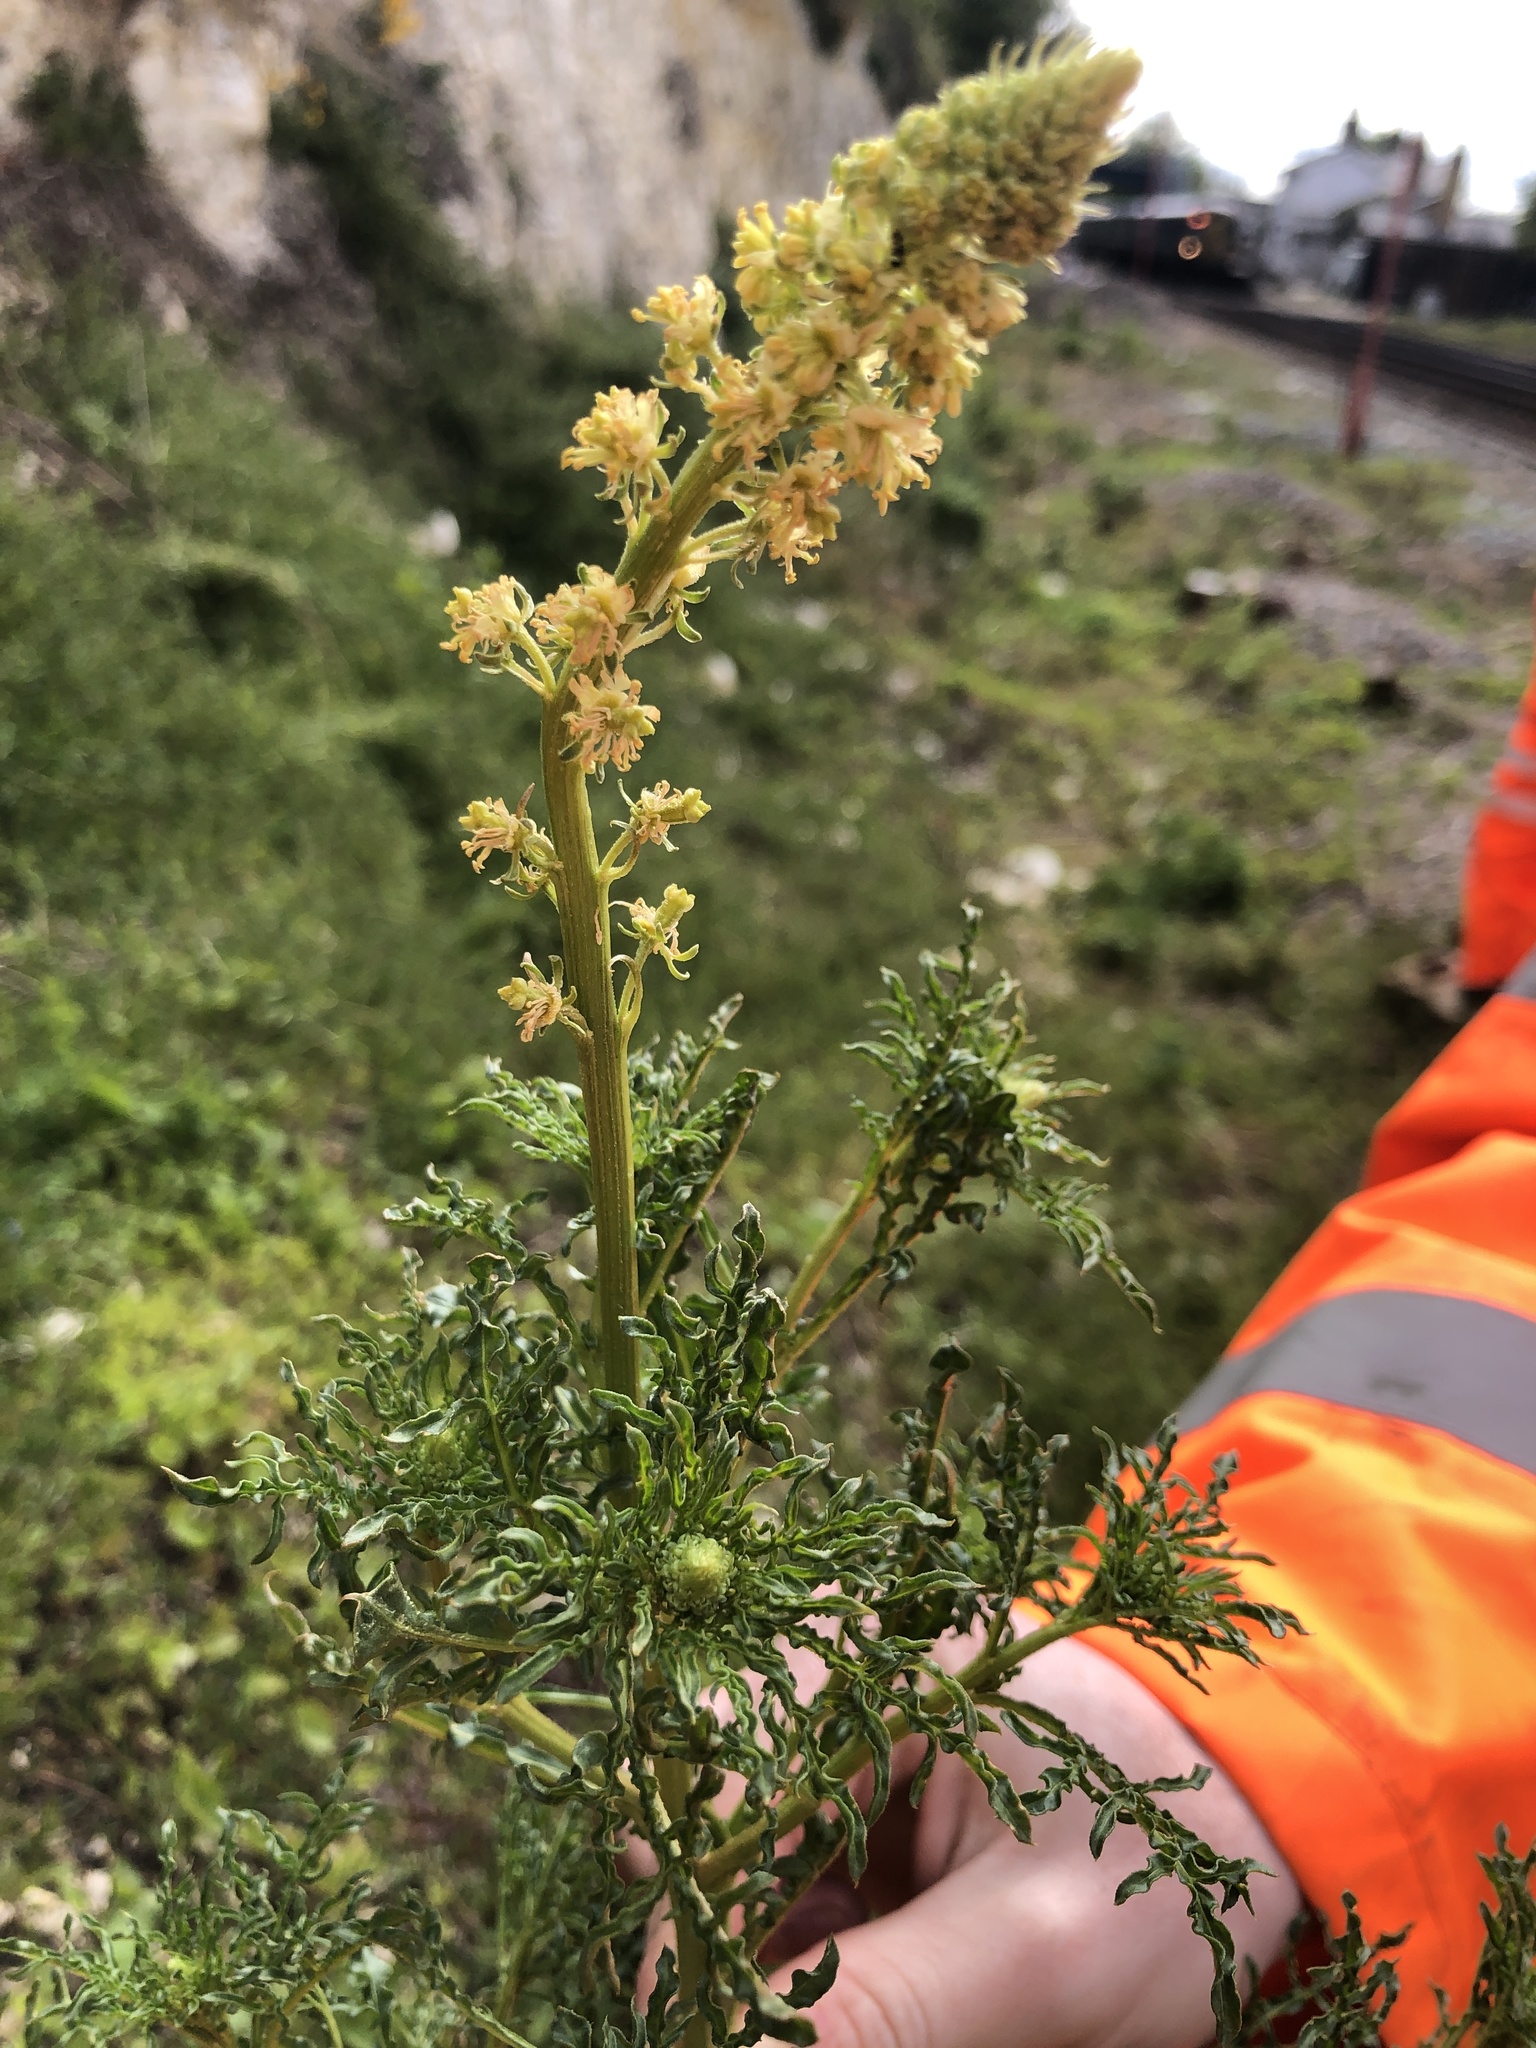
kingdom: Plantae
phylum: Tracheophyta
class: Magnoliopsida
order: Brassicales
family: Resedaceae
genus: Reseda
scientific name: Reseda lutea
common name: Wild mignonette
